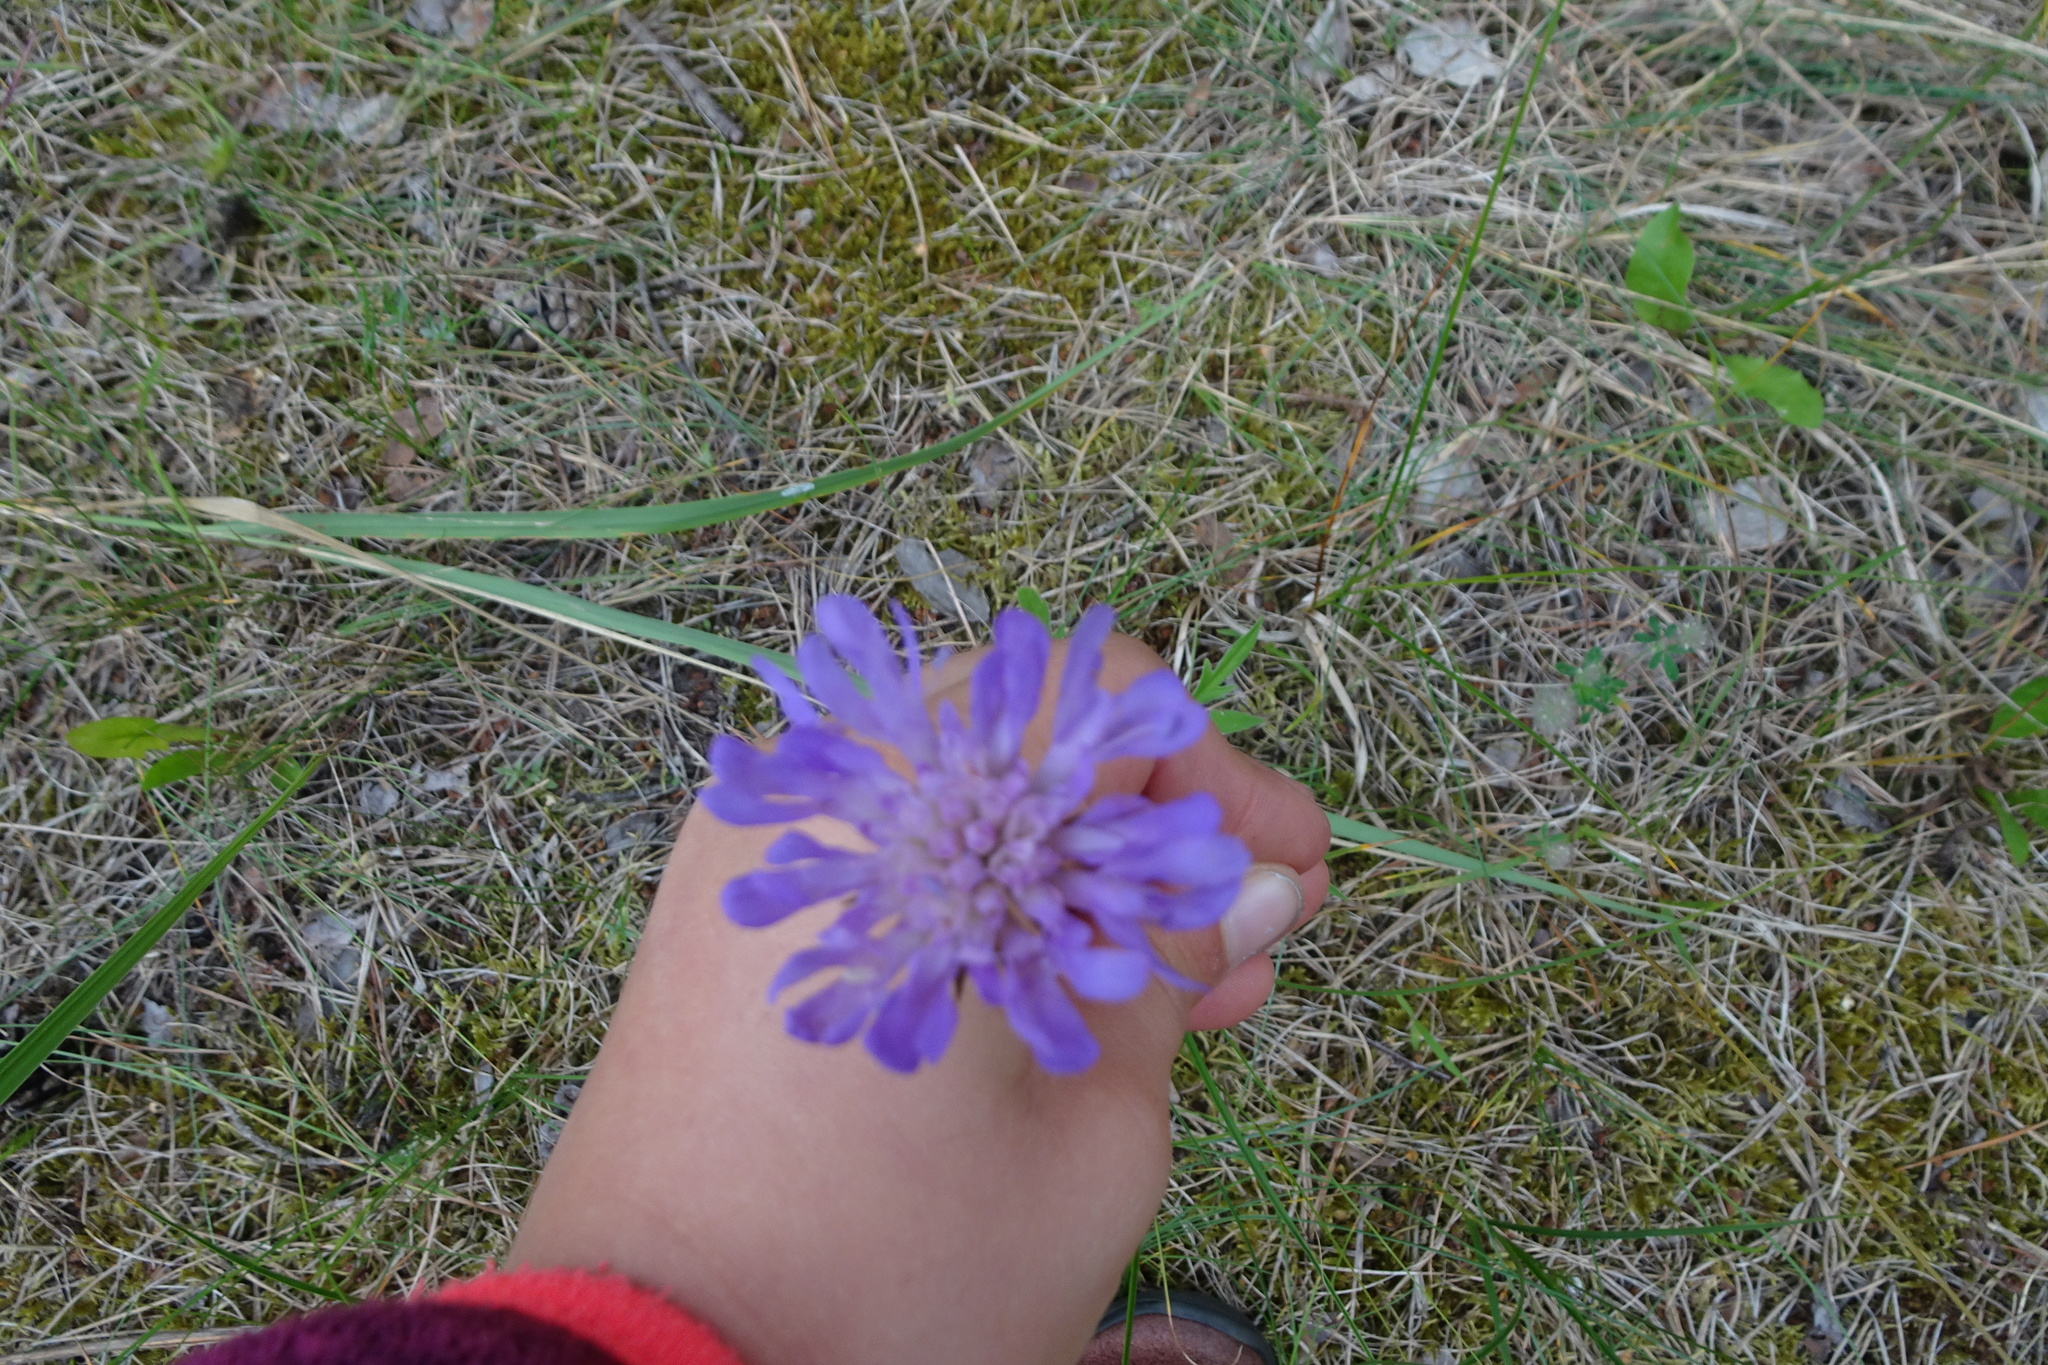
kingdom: Plantae
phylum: Tracheophyta
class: Magnoliopsida
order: Dipsacales
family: Caprifoliaceae
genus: Knautia
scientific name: Knautia arvensis
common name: Field scabiosa
